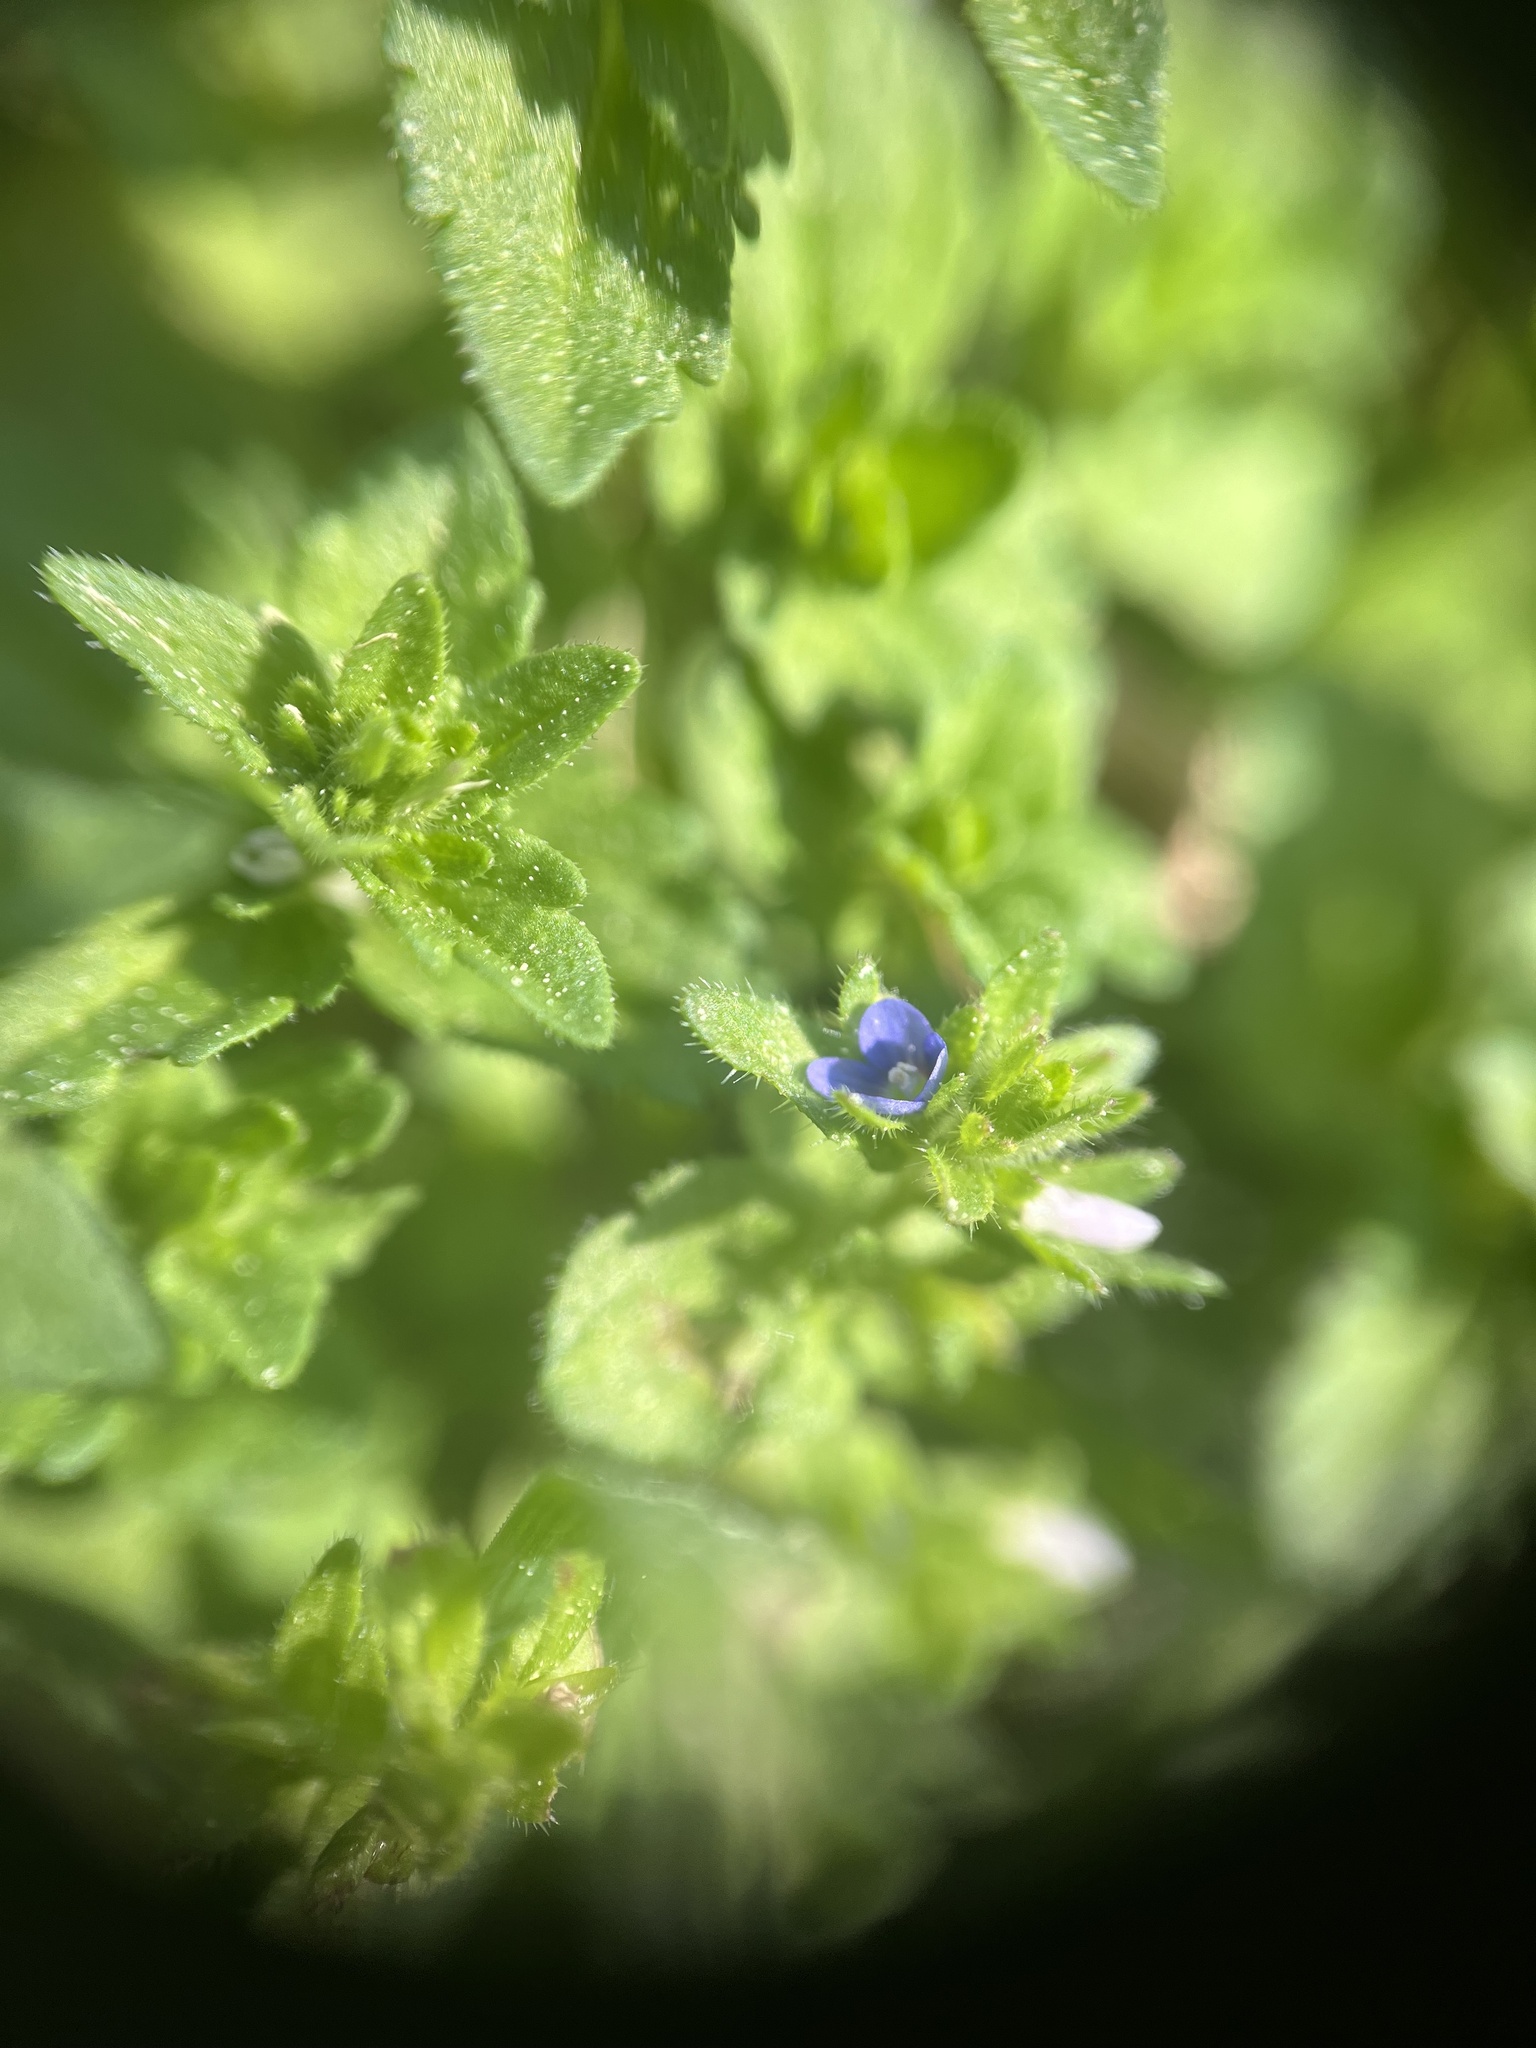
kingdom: Plantae
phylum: Tracheophyta
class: Magnoliopsida
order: Lamiales
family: Plantaginaceae
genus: Veronica
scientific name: Veronica arvensis
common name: Corn speedwell
